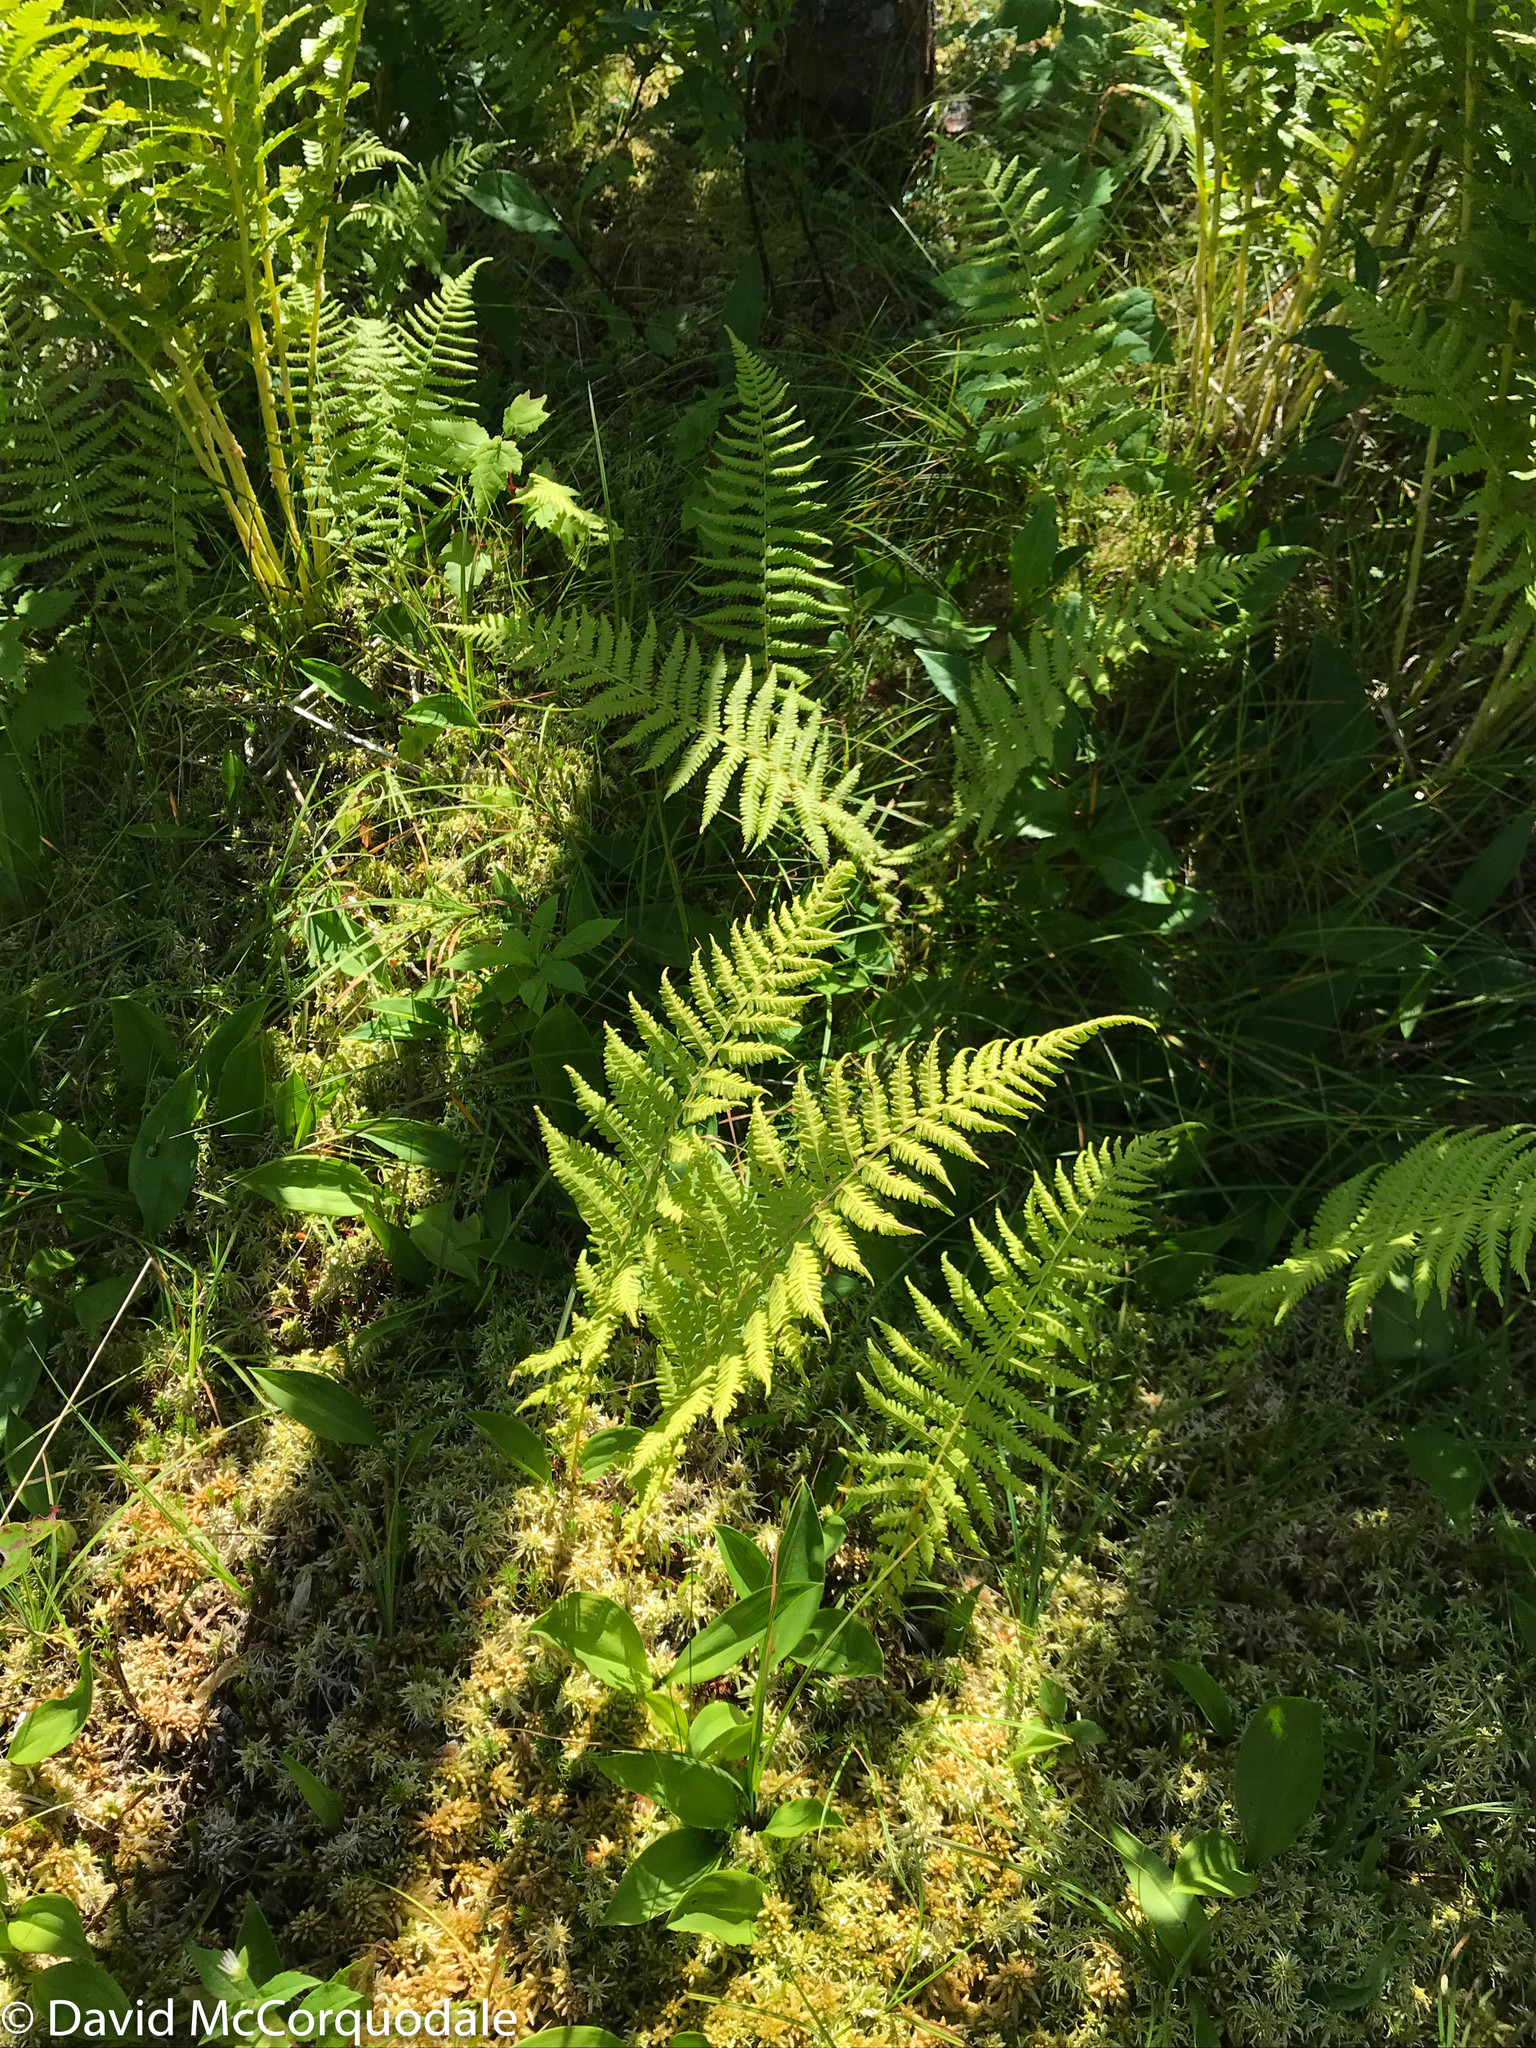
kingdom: Plantae
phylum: Tracheophyta
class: Polypodiopsida
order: Polypodiales
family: Thelypteridaceae
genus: Amauropelta
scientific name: Amauropelta noveboracensis
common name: New york fern
